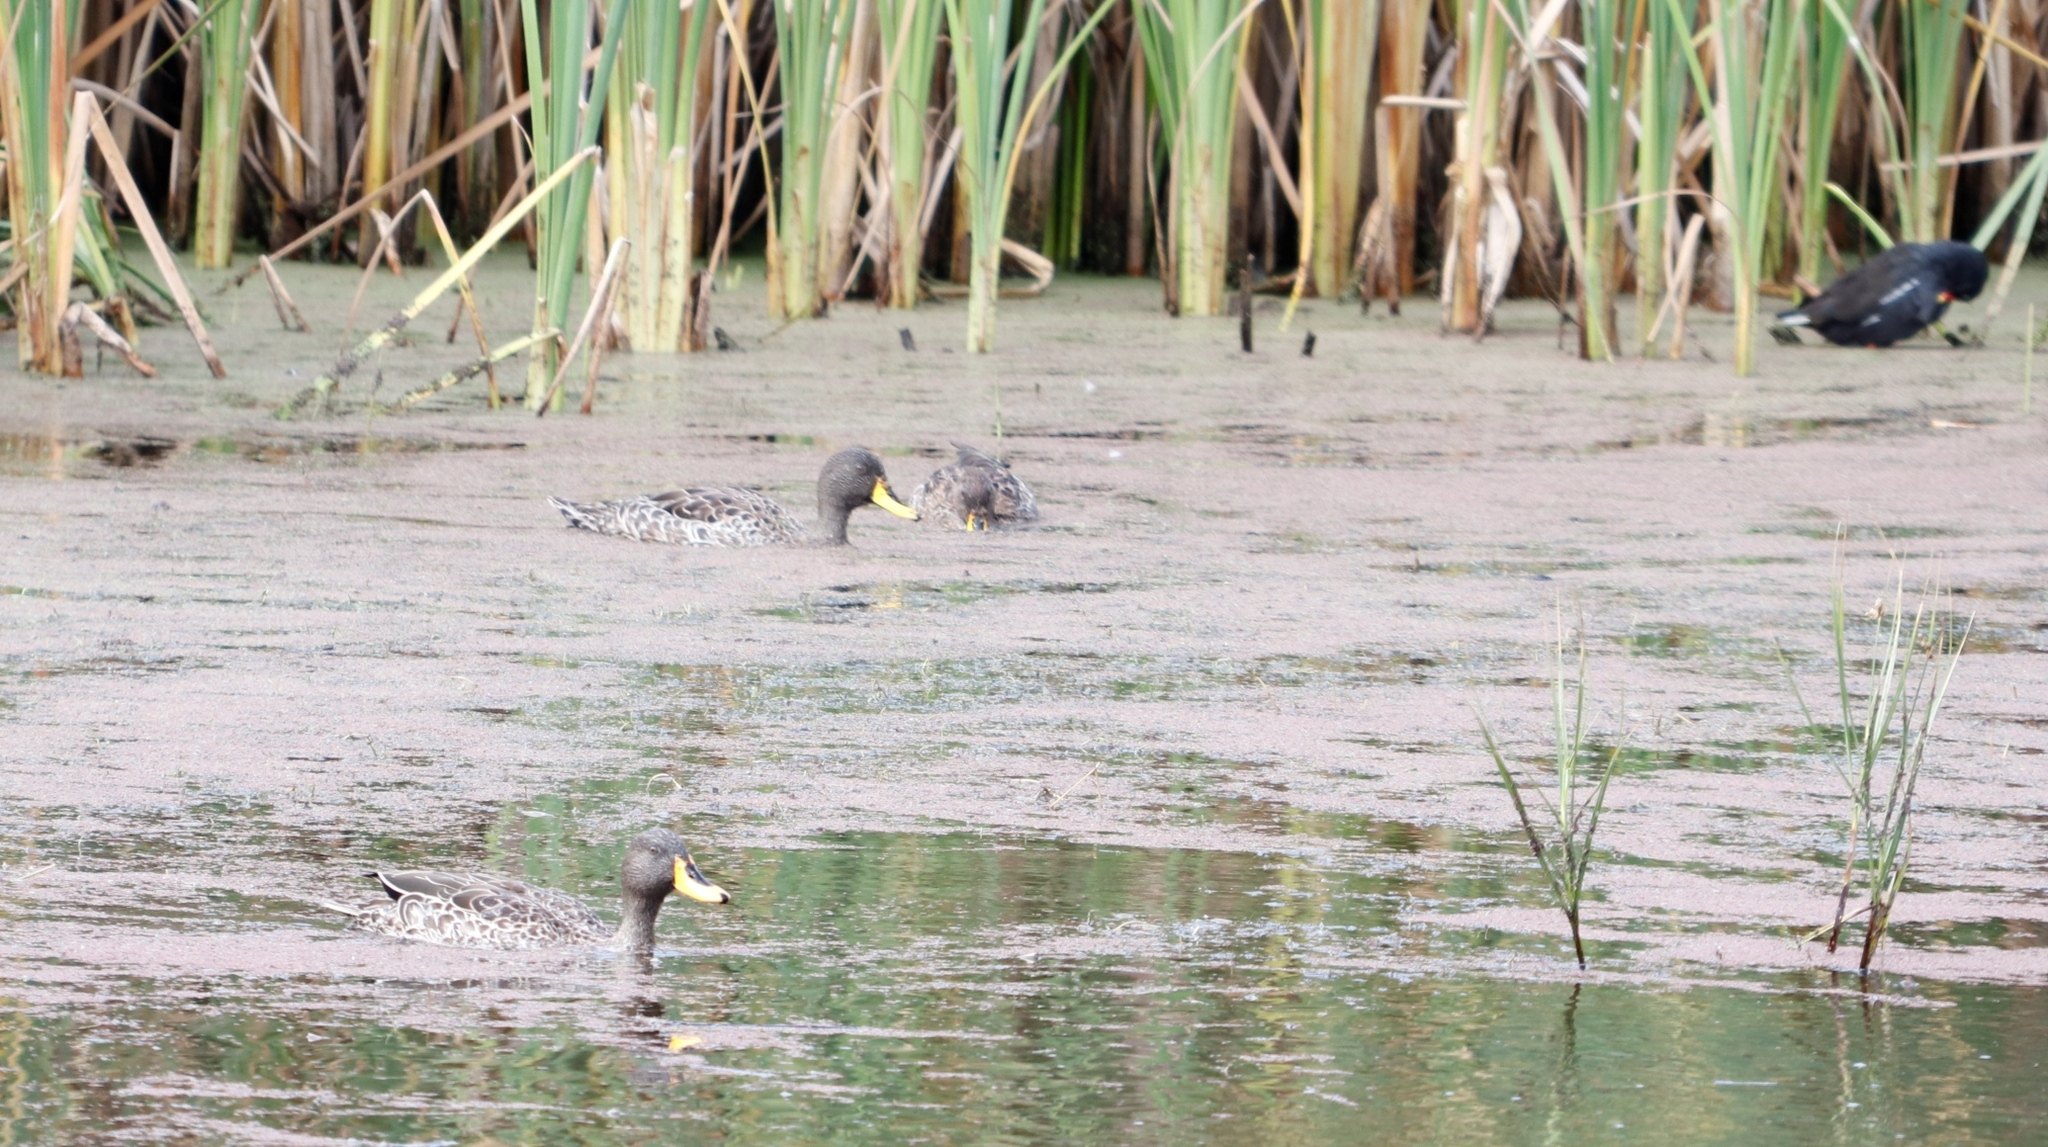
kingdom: Animalia
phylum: Chordata
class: Aves
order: Anseriformes
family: Anatidae
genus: Anas
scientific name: Anas undulata
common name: Yellow-billed duck
